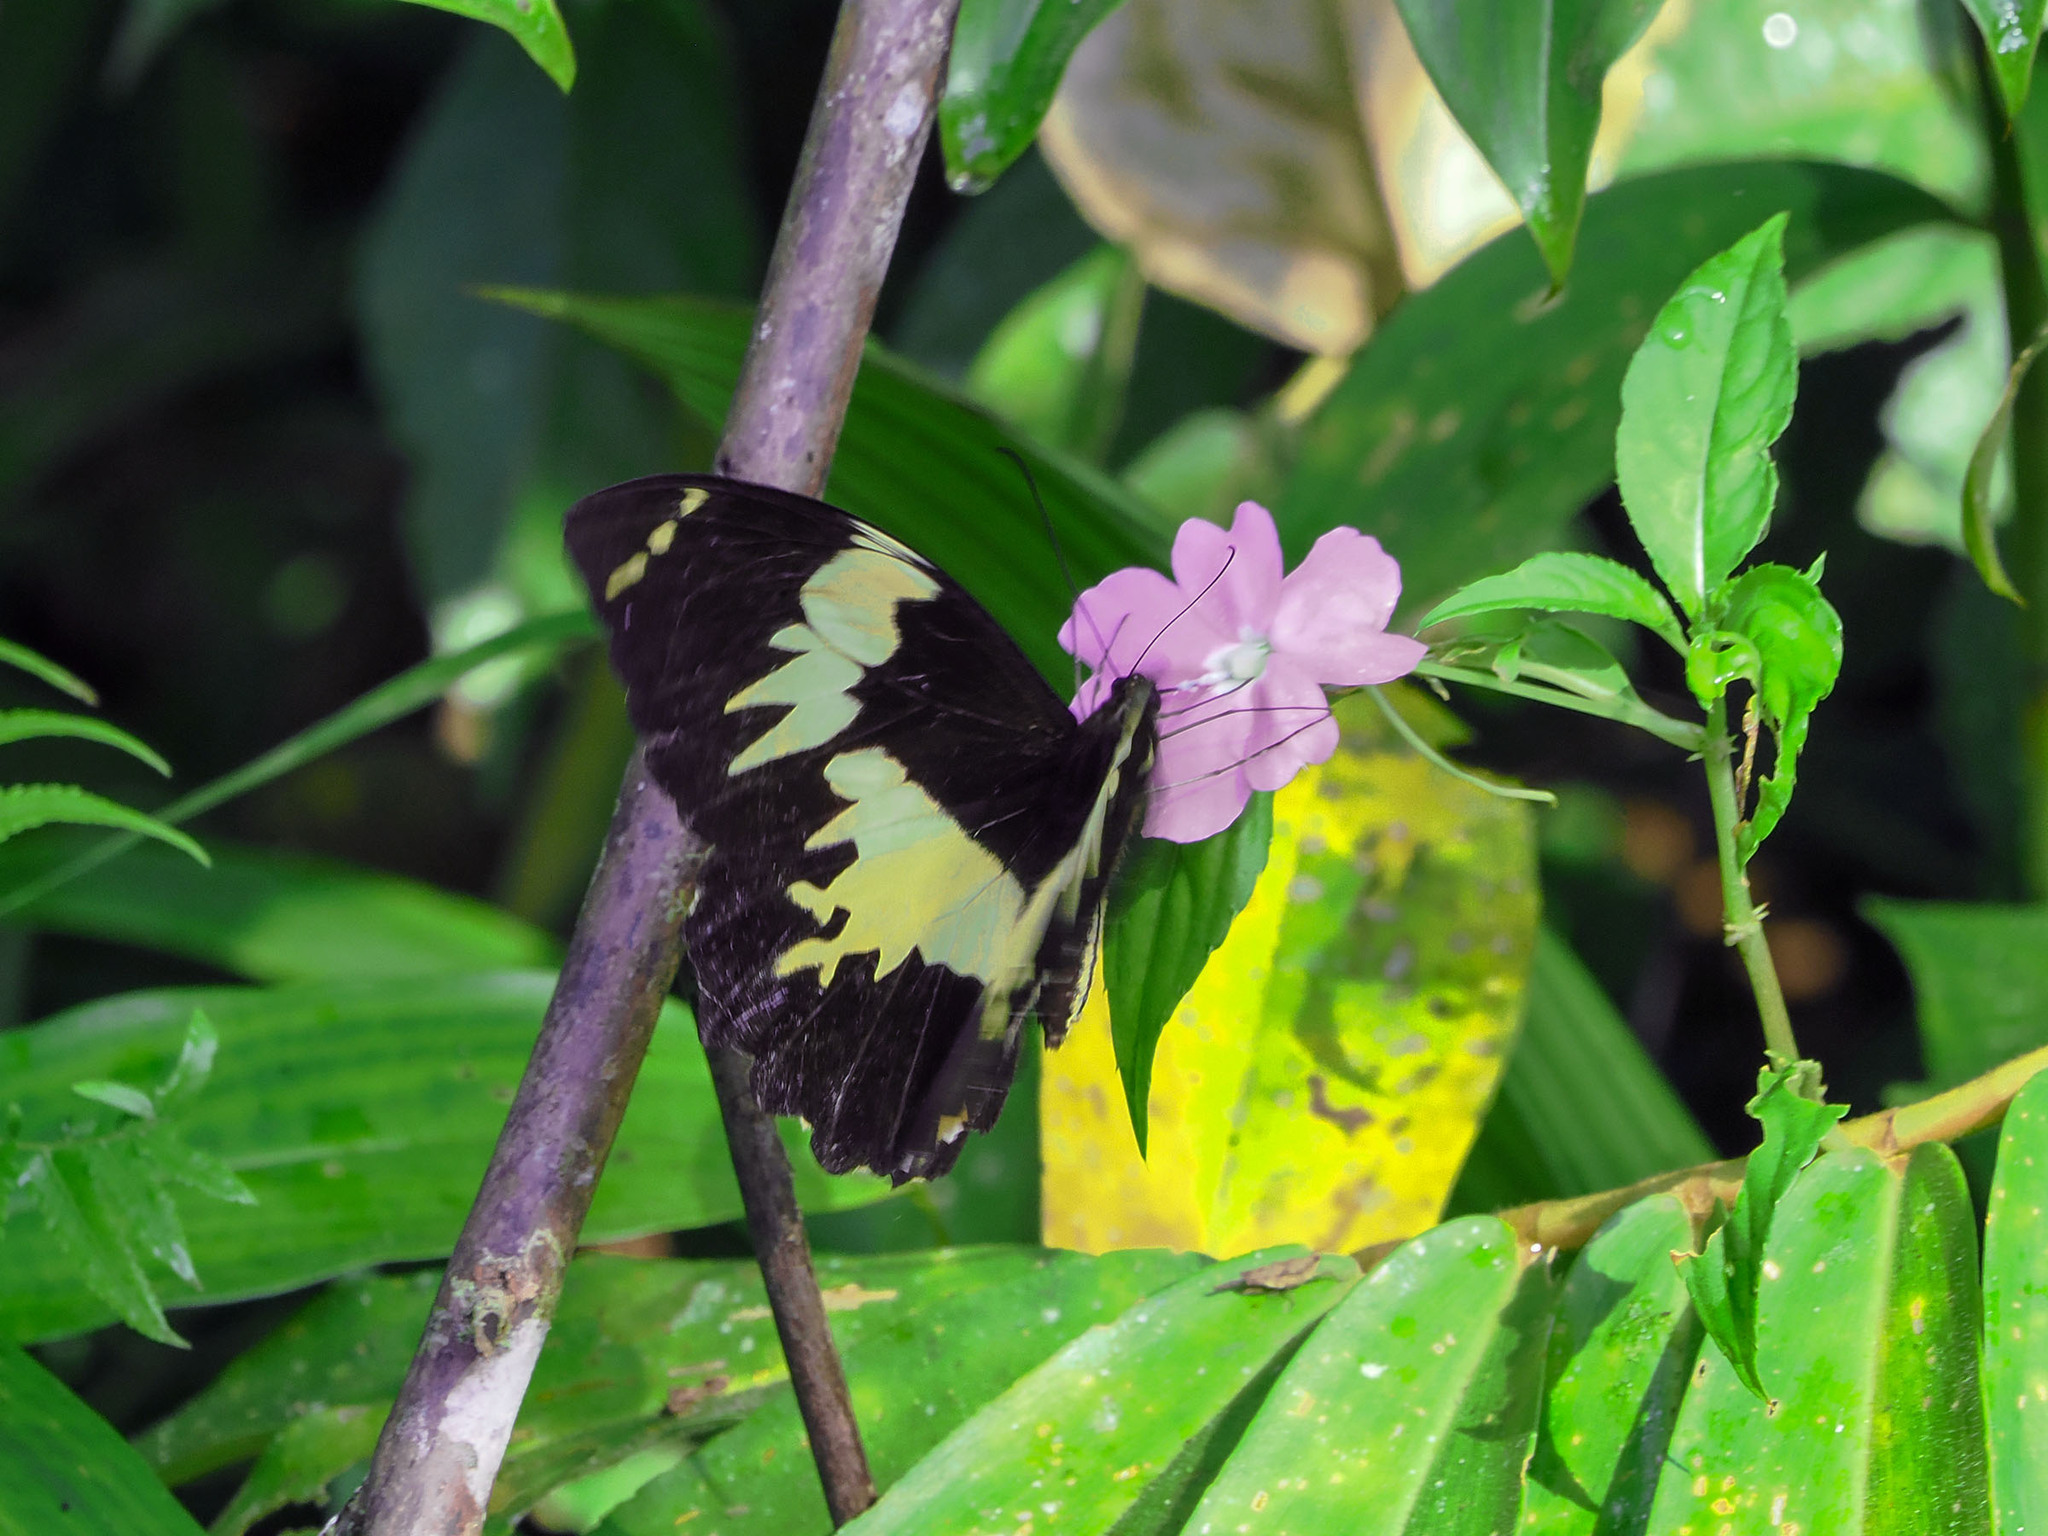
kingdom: Animalia
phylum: Arthropoda
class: Insecta
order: Lepidoptera
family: Papilionidae
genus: Papilio
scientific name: Papilio euchenor
